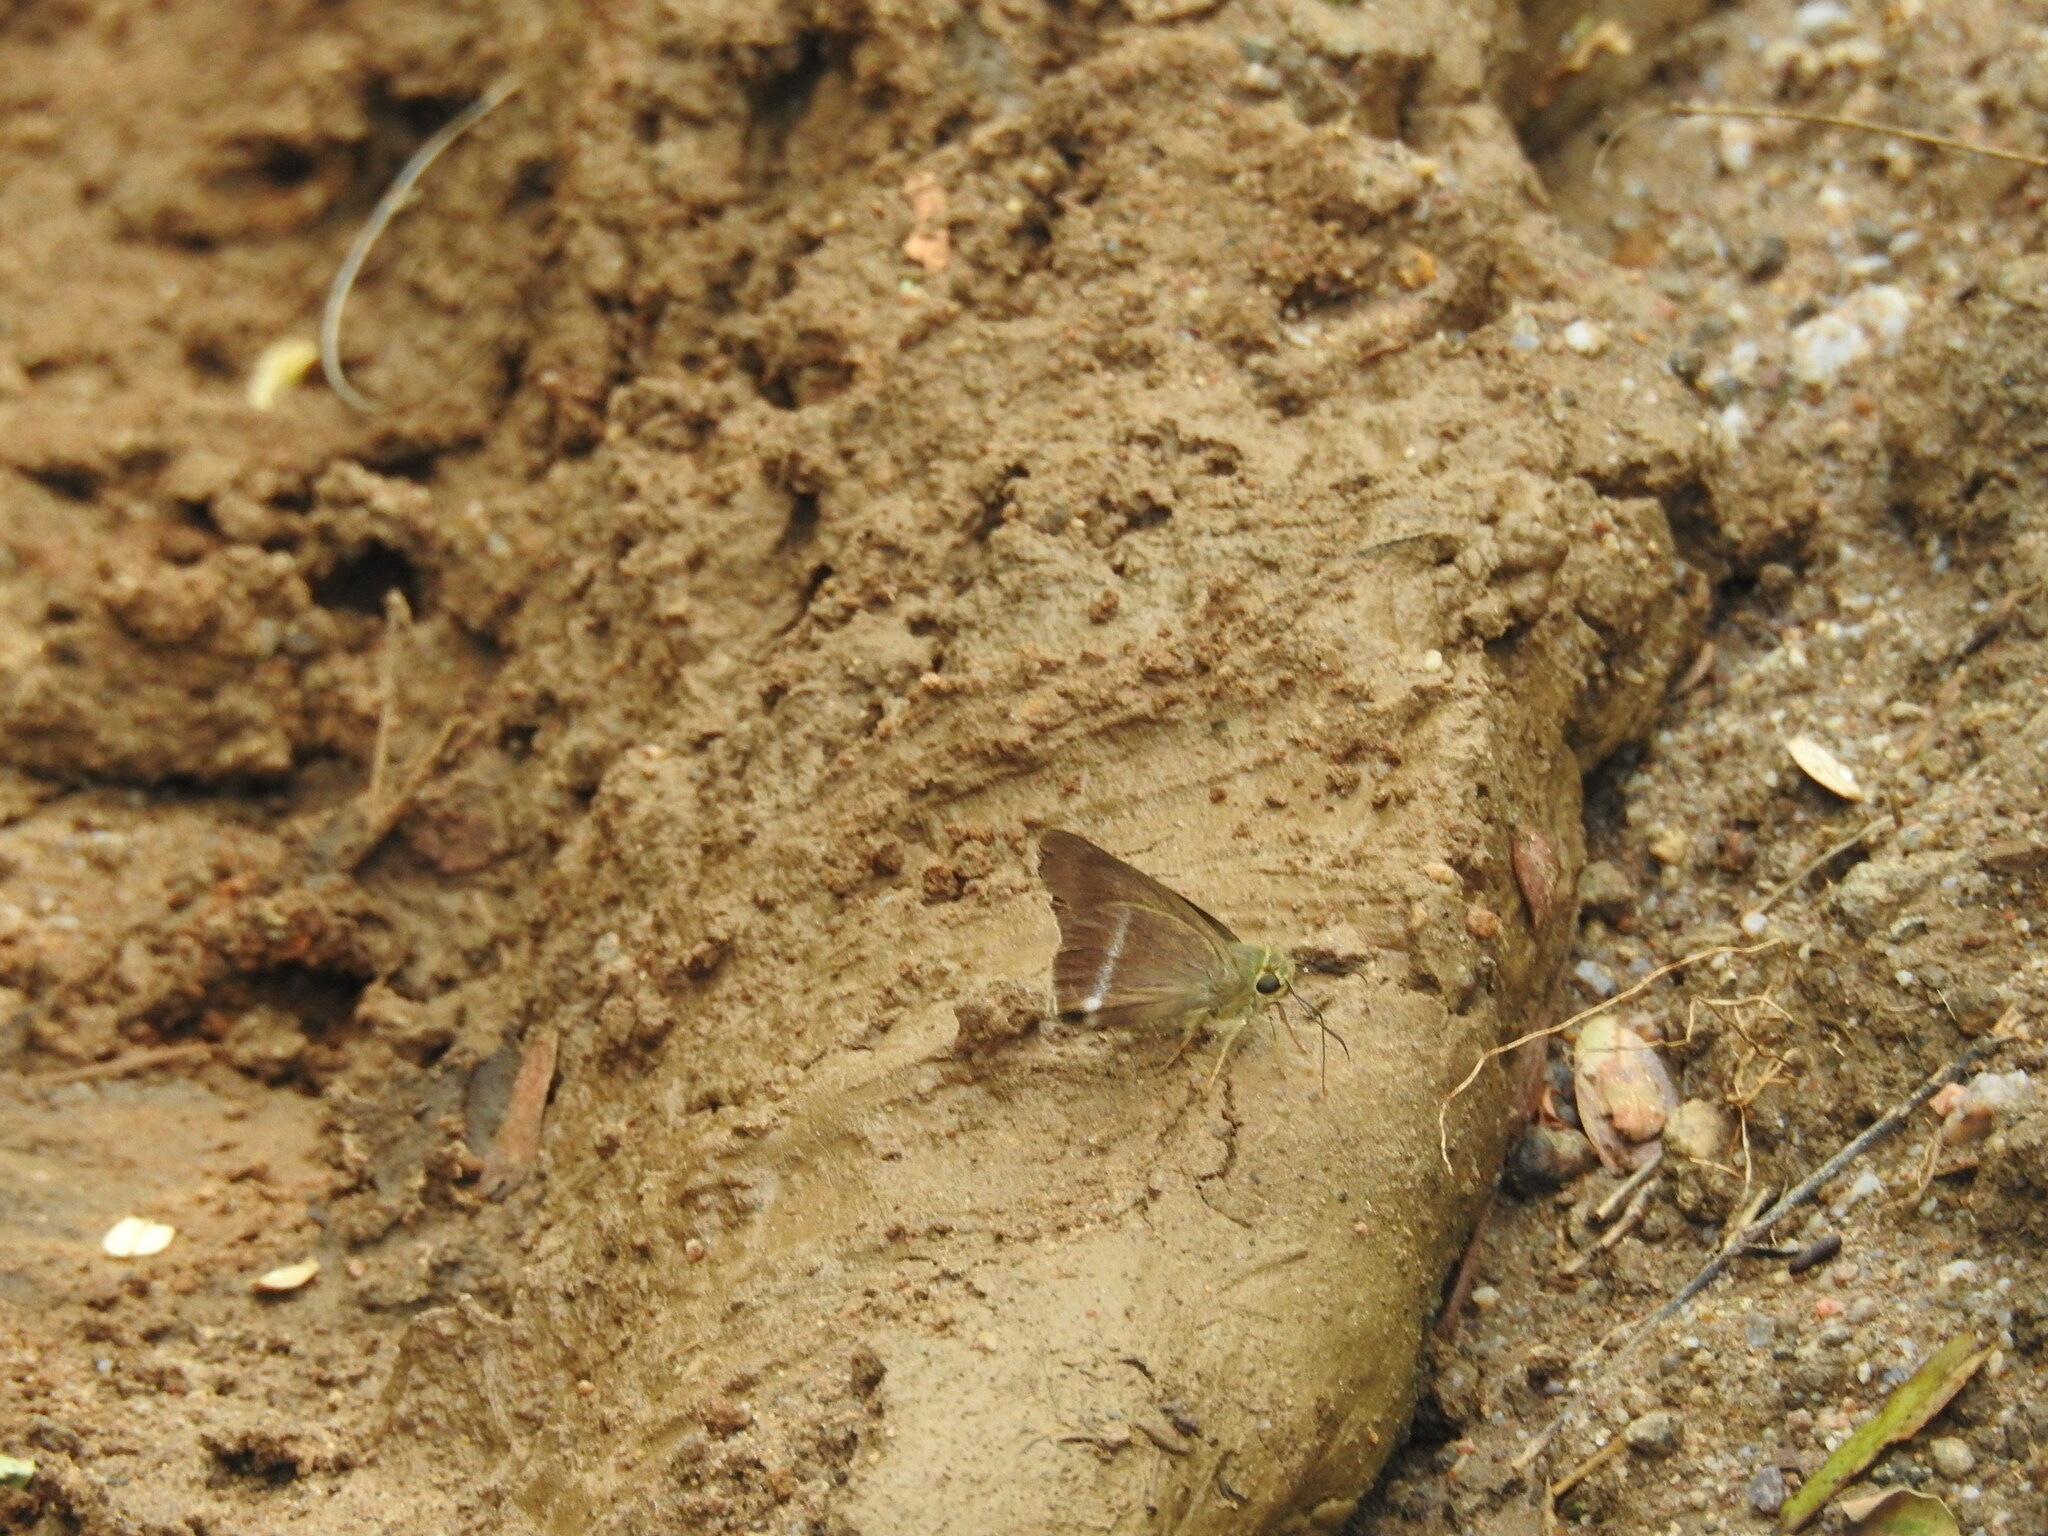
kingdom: Animalia
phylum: Arthropoda
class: Insecta
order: Lepidoptera
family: Hesperiidae
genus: Hasora
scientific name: Hasora chromus
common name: Common banded awl
